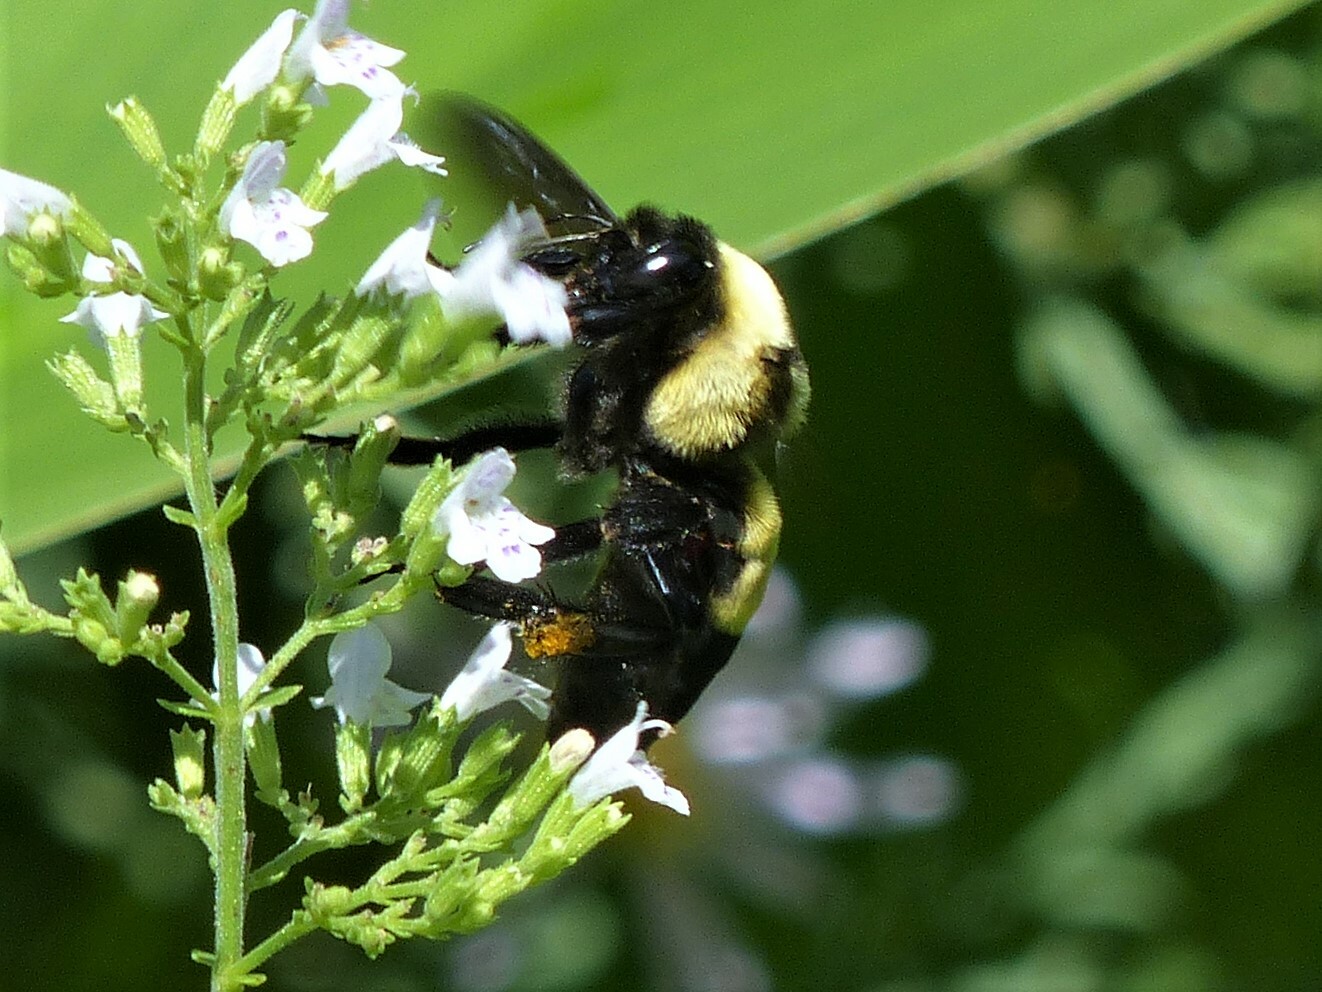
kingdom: Animalia
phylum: Arthropoda
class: Insecta
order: Hymenoptera
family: Apidae
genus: Bombus
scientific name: Bombus fraternus
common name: Southern plains bumble bee
